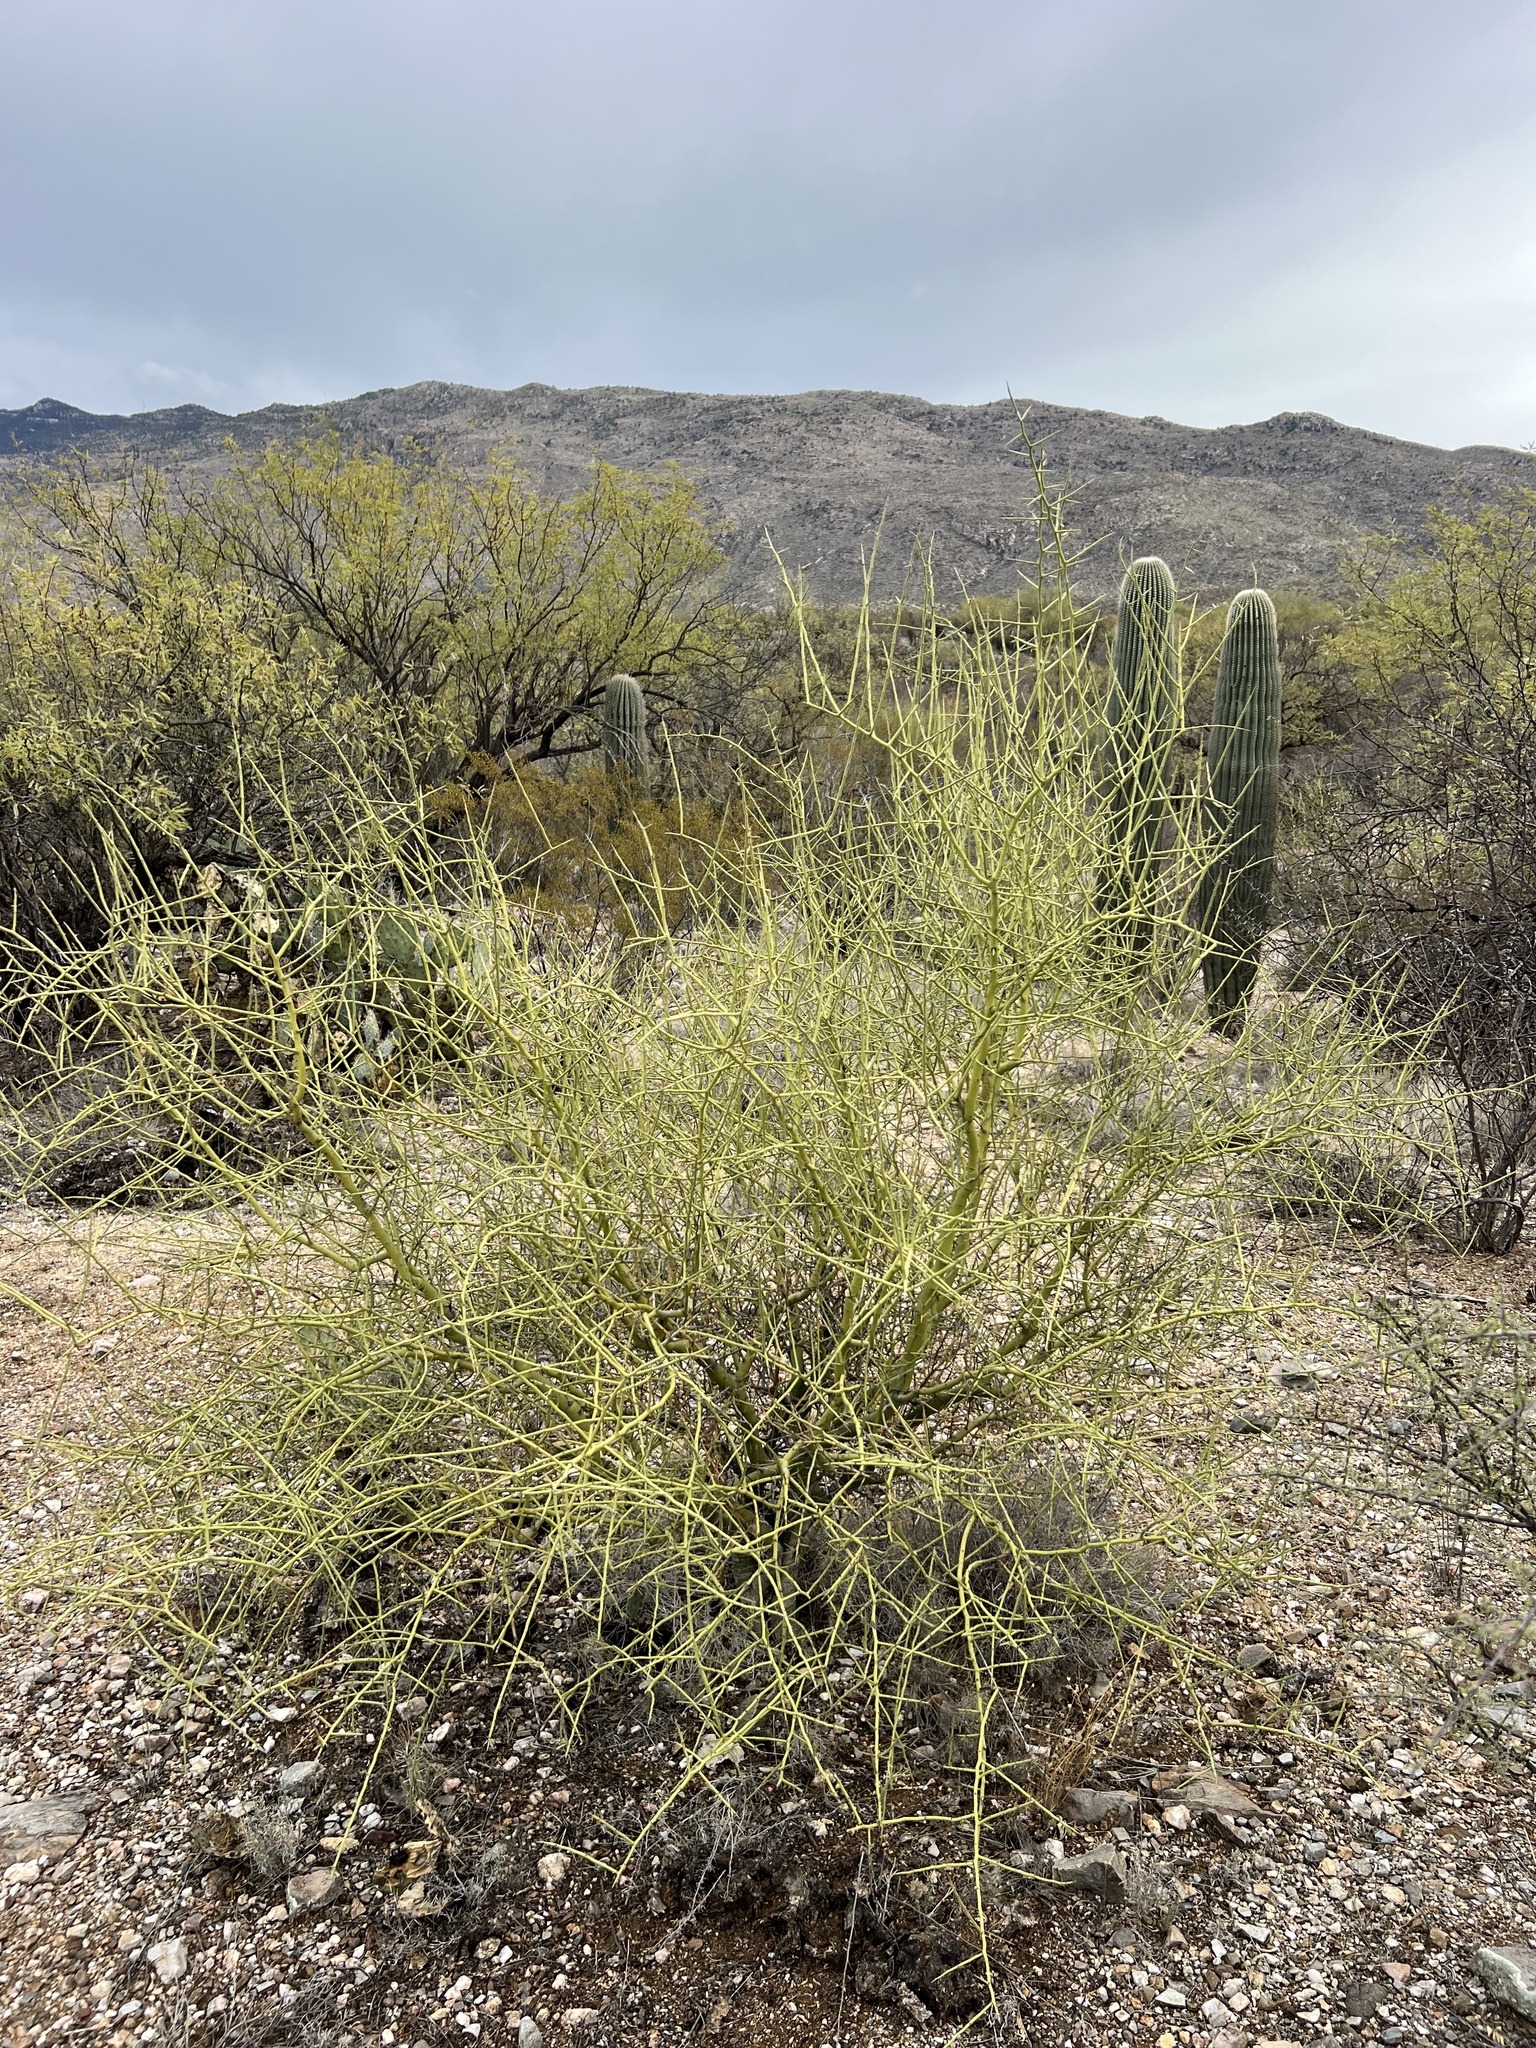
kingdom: Plantae
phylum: Tracheophyta
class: Magnoliopsida
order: Fabales
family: Fabaceae
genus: Parkinsonia
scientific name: Parkinsonia microphylla
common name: Yellow paloverde
